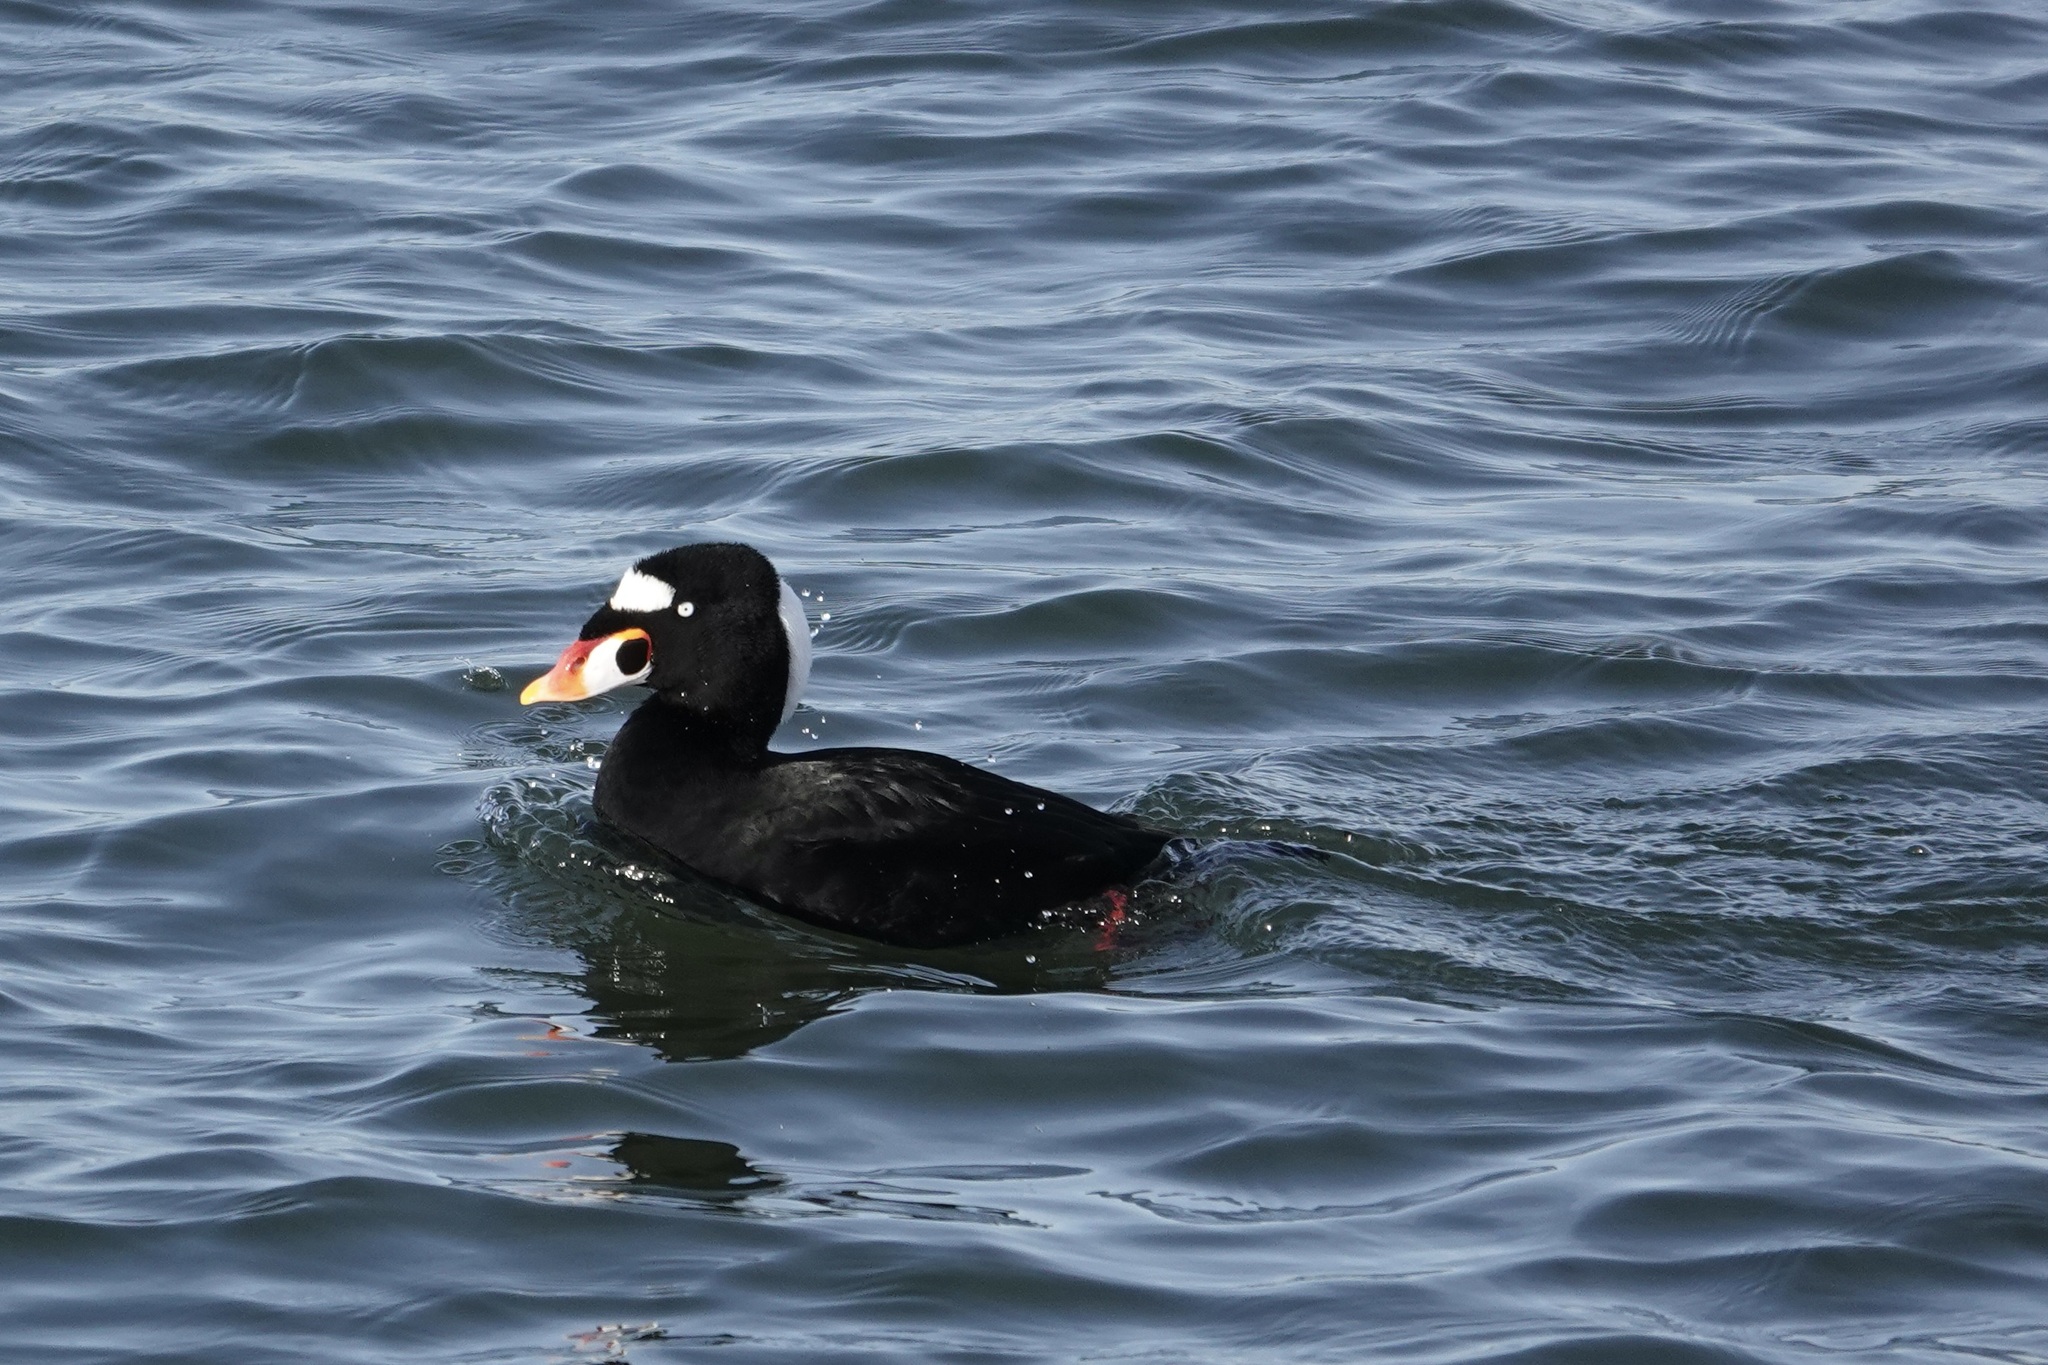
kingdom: Animalia
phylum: Chordata
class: Aves
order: Anseriformes
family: Anatidae
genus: Melanitta
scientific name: Melanitta perspicillata
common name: Surf scoter
